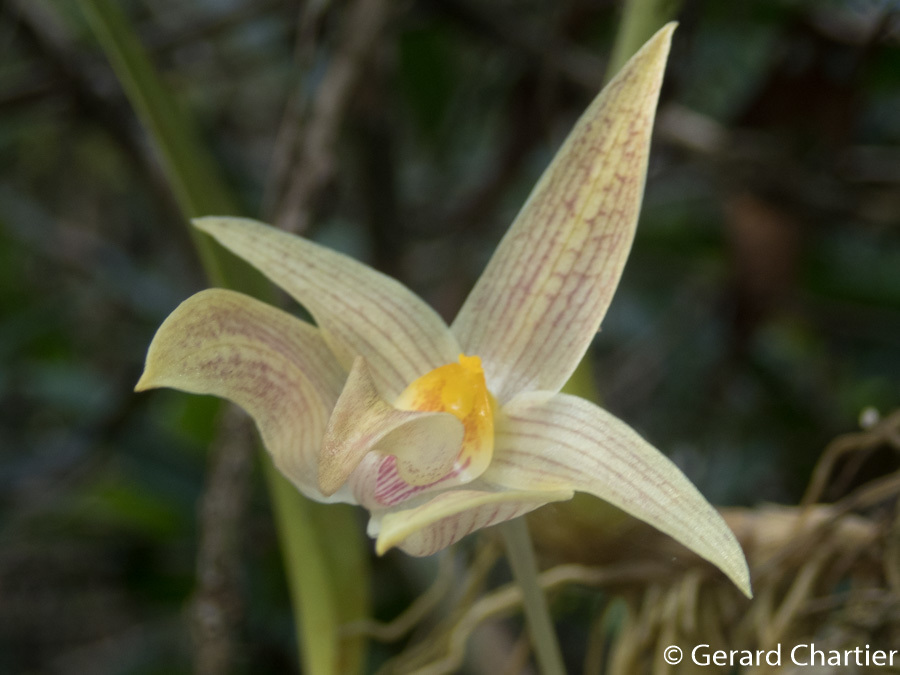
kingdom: Plantae
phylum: Tracheophyta
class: Liliopsida
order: Asparagales
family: Orchidaceae
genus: Bulbophyllum
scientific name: Bulbophyllum lobbii
